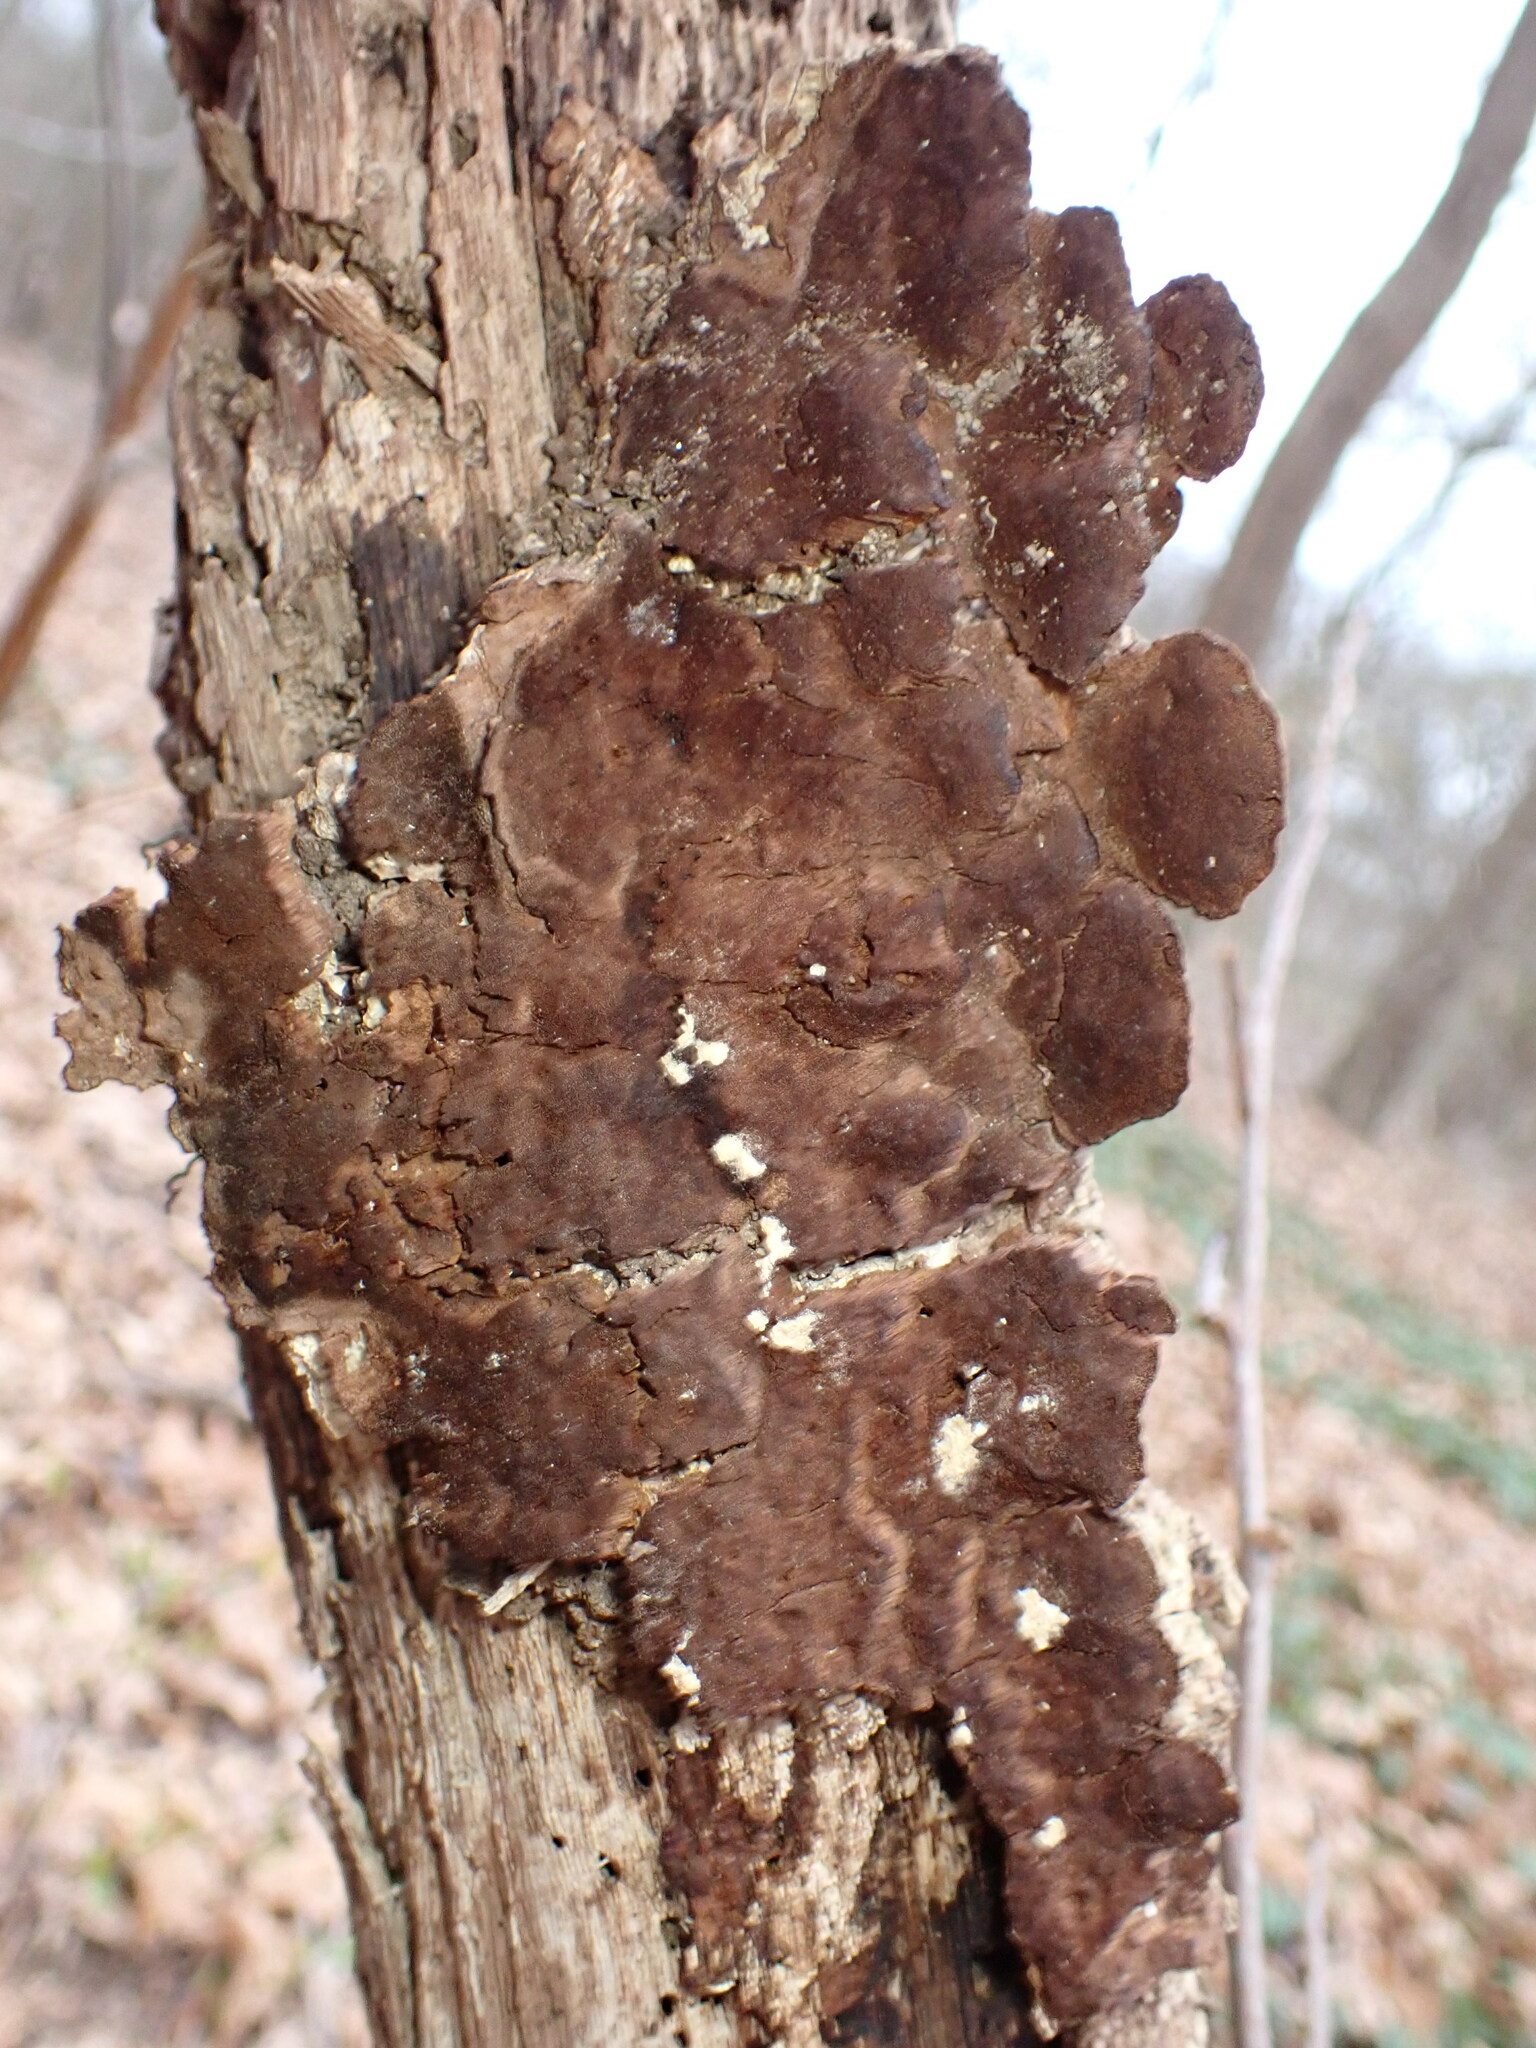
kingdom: Fungi
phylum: Basidiomycota
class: Agaricomycetes
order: Hymenochaetales
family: Hymenochaetaceae
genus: Phellinus
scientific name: Phellinus gilvus
